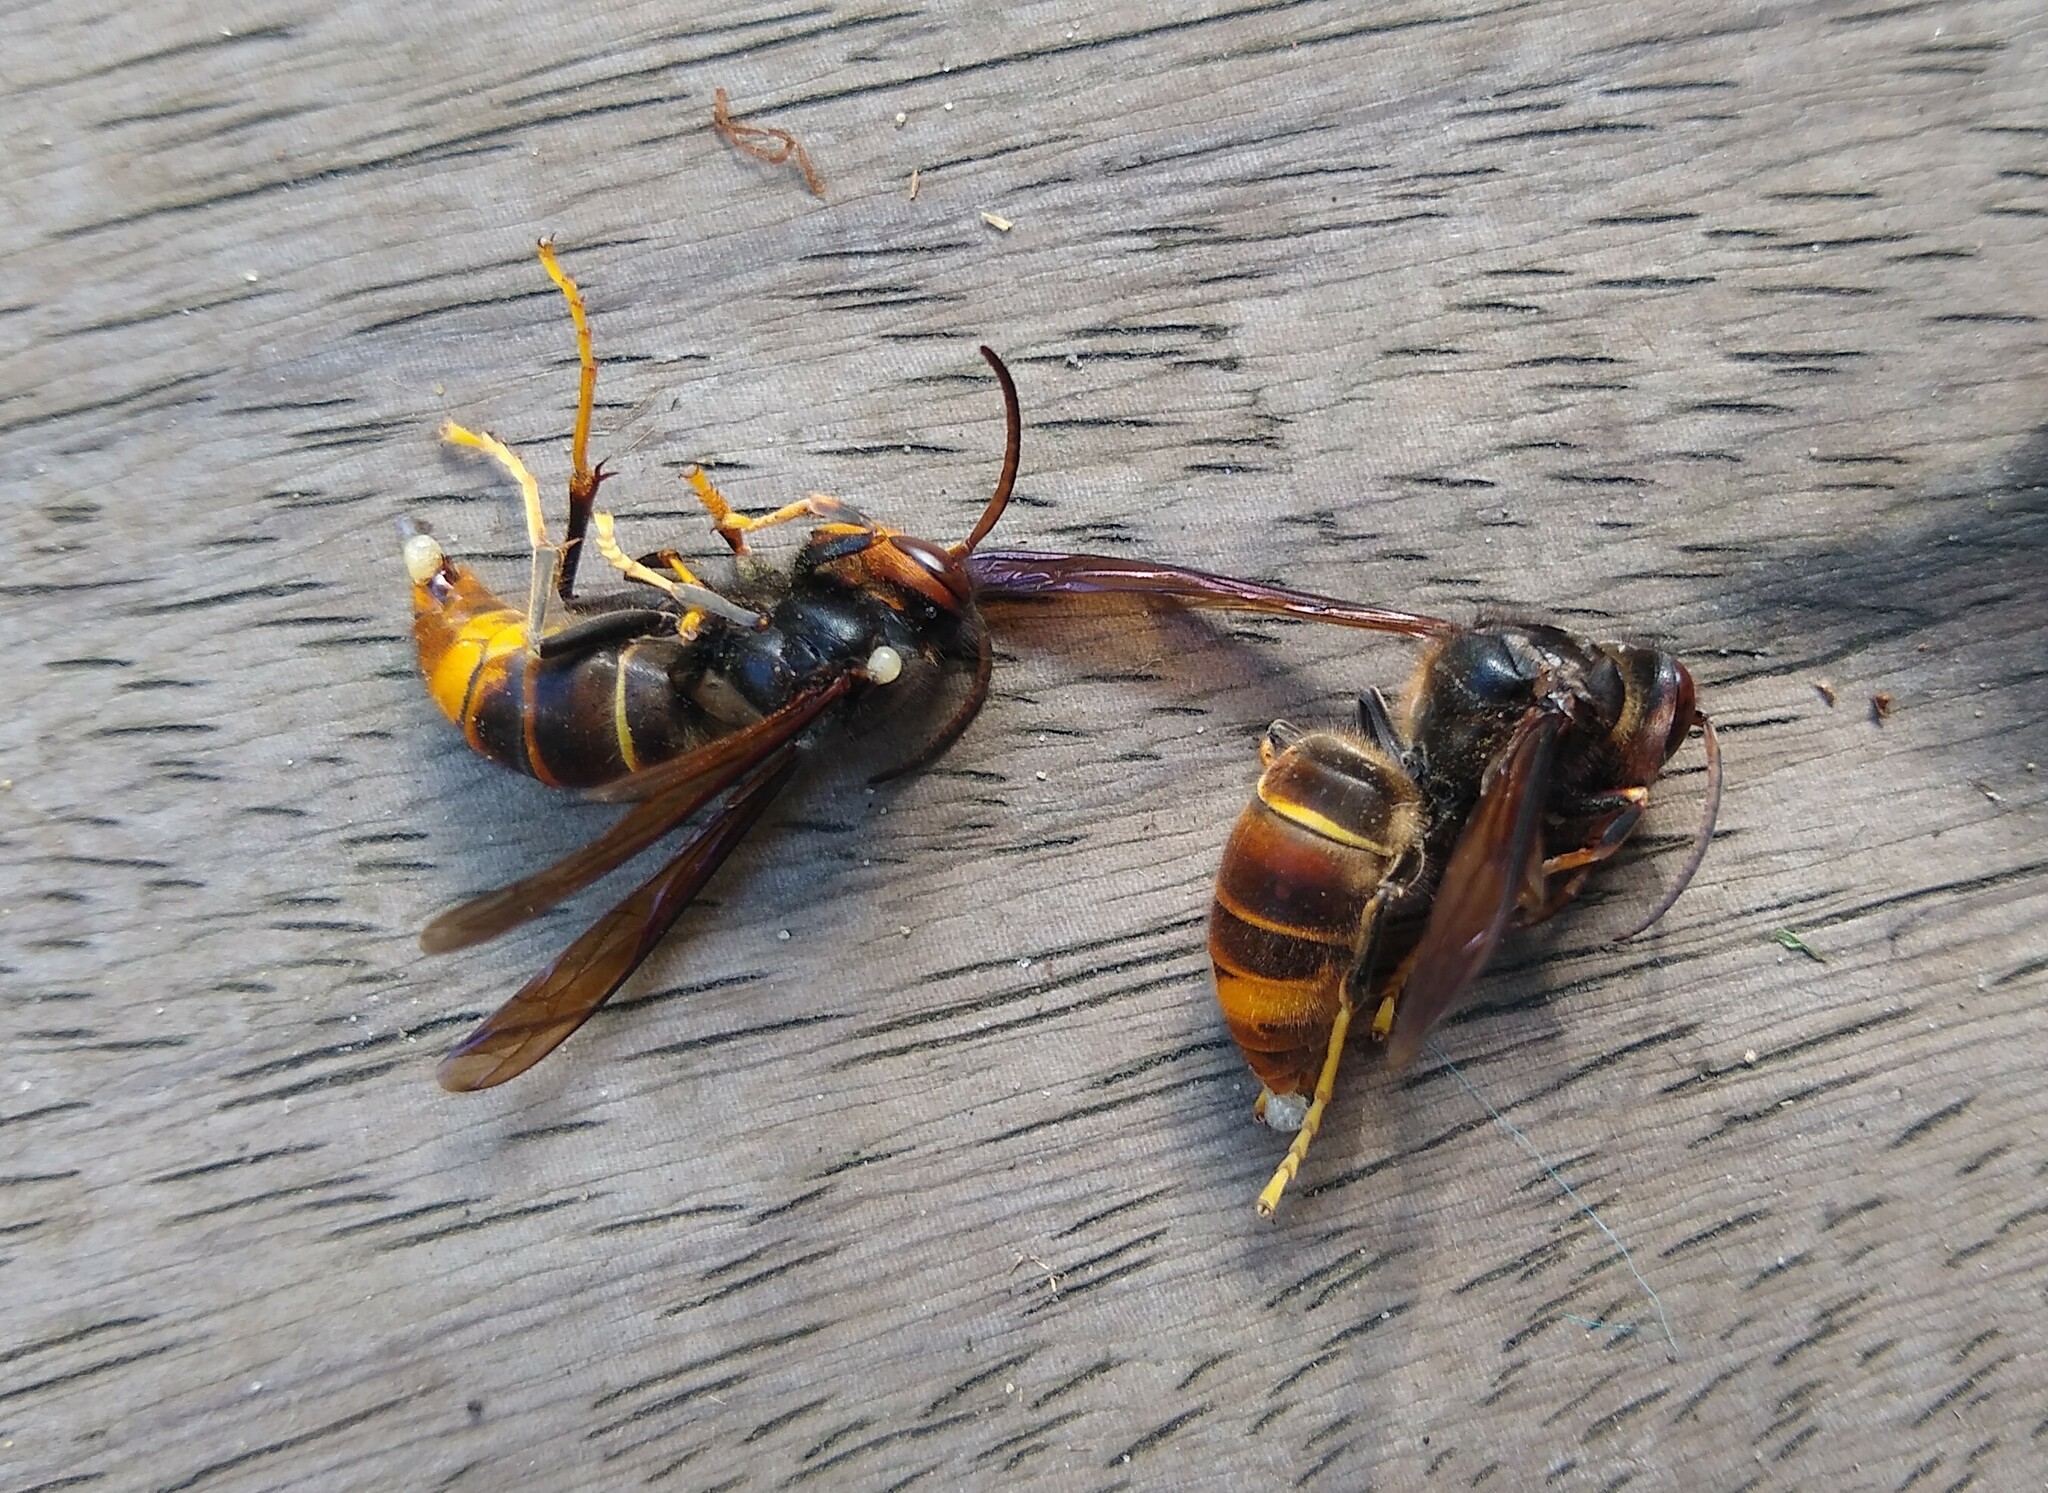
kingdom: Animalia
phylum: Arthropoda
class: Insecta
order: Hymenoptera
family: Vespidae
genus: Vespa
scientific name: Vespa velutina
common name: Asian hornet
